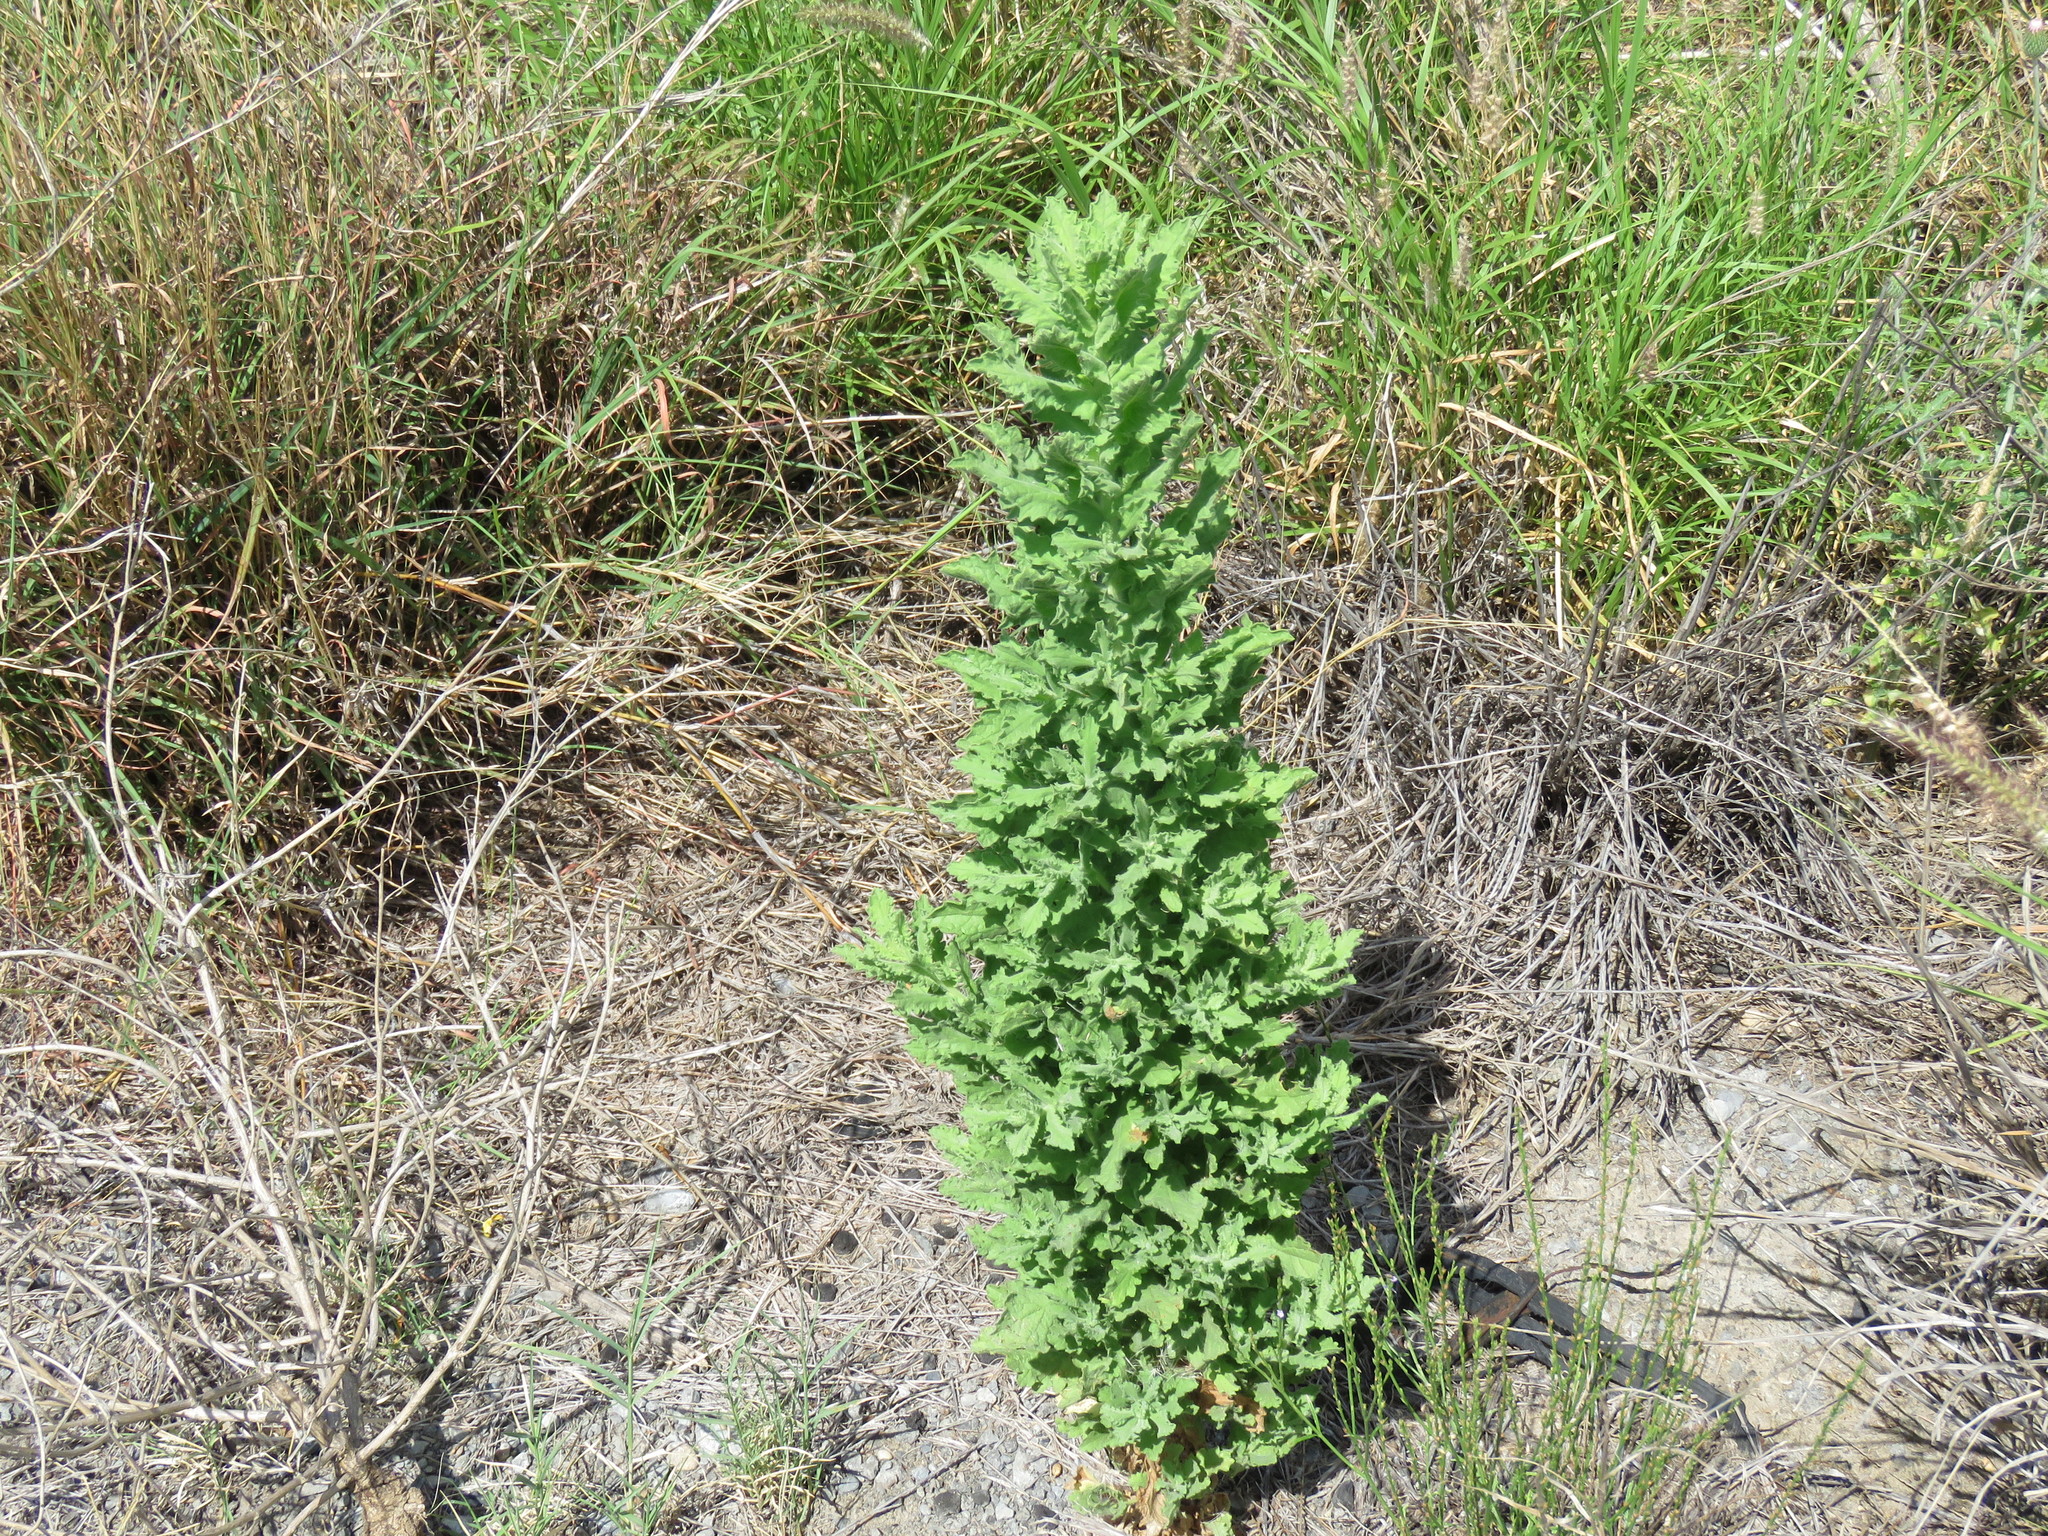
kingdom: Plantae
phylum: Tracheophyta
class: Magnoliopsida
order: Asterales
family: Asteraceae
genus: Laennecia
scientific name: Laennecia coulteri
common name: Coulter's woolwort
